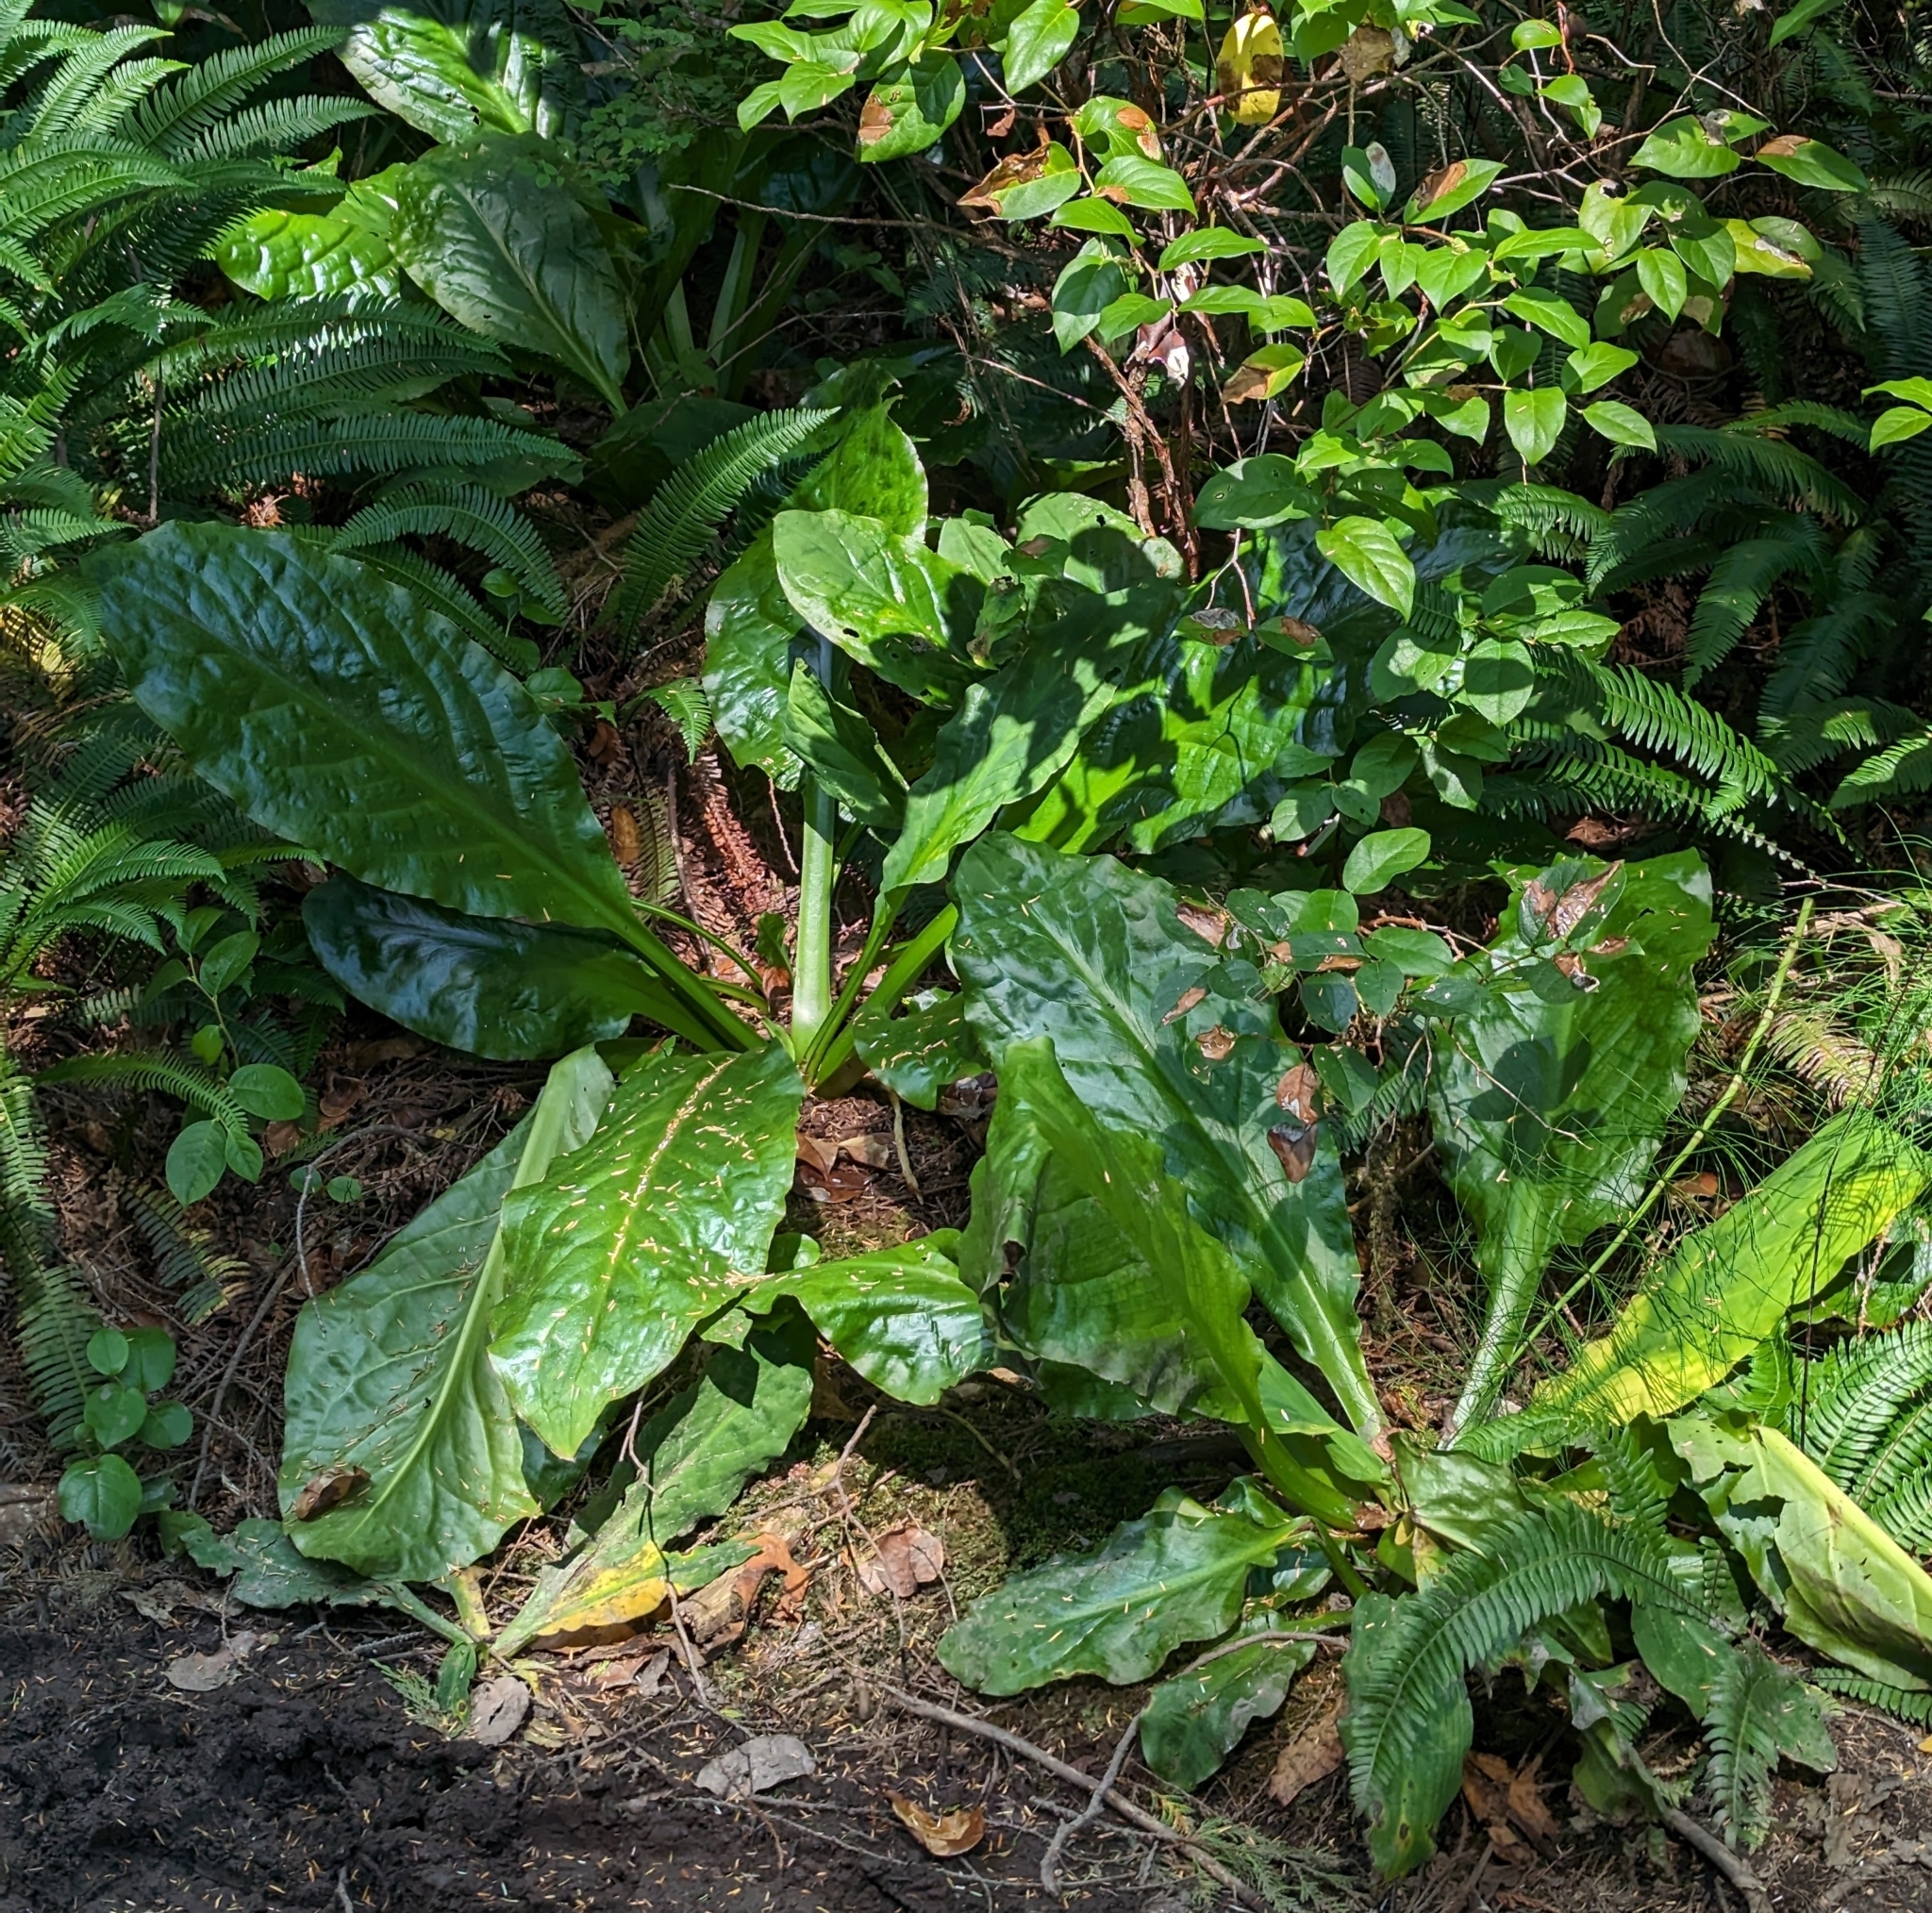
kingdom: Plantae
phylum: Tracheophyta
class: Liliopsida
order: Alismatales
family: Araceae
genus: Lysichiton
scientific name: Lysichiton americanus
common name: American skunk cabbage
